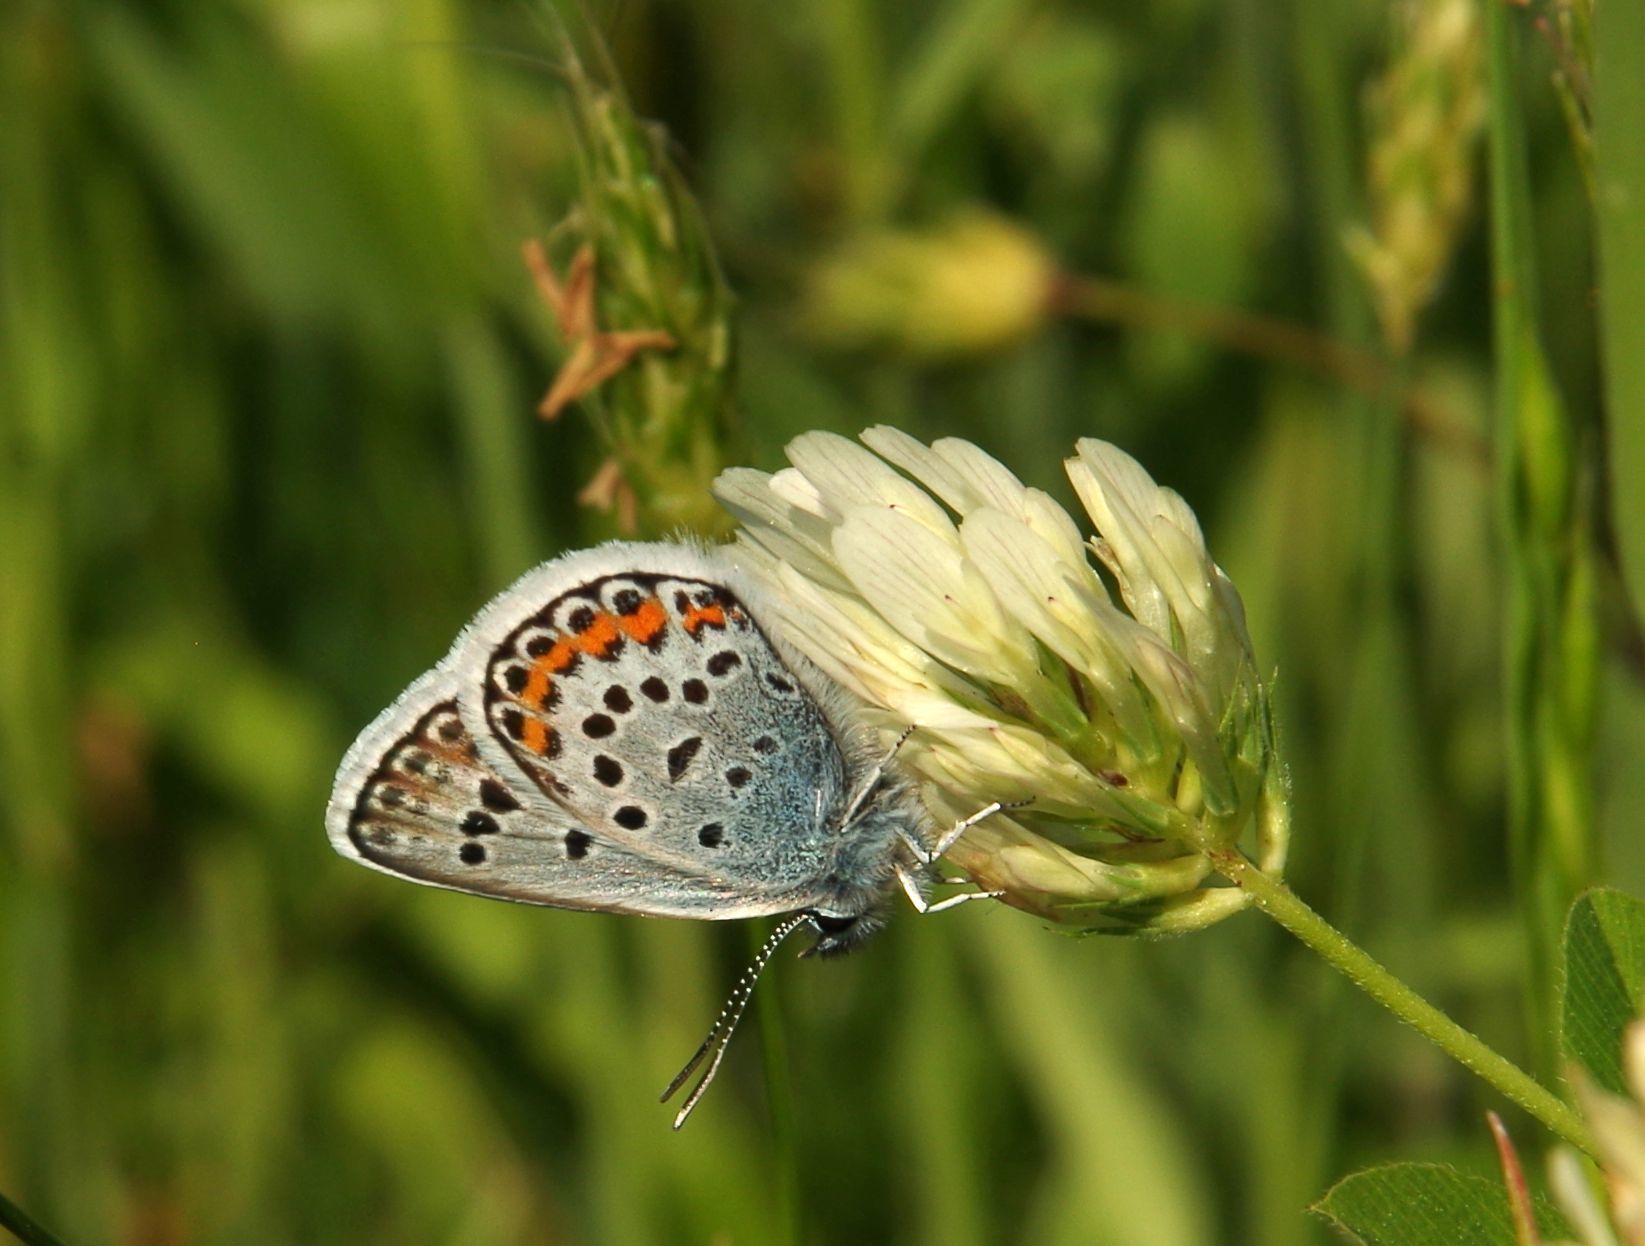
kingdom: Animalia
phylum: Arthropoda
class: Insecta
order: Lepidoptera
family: Lycaenidae
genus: Plebejus
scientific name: Plebejus argus
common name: Silver-studded blue
